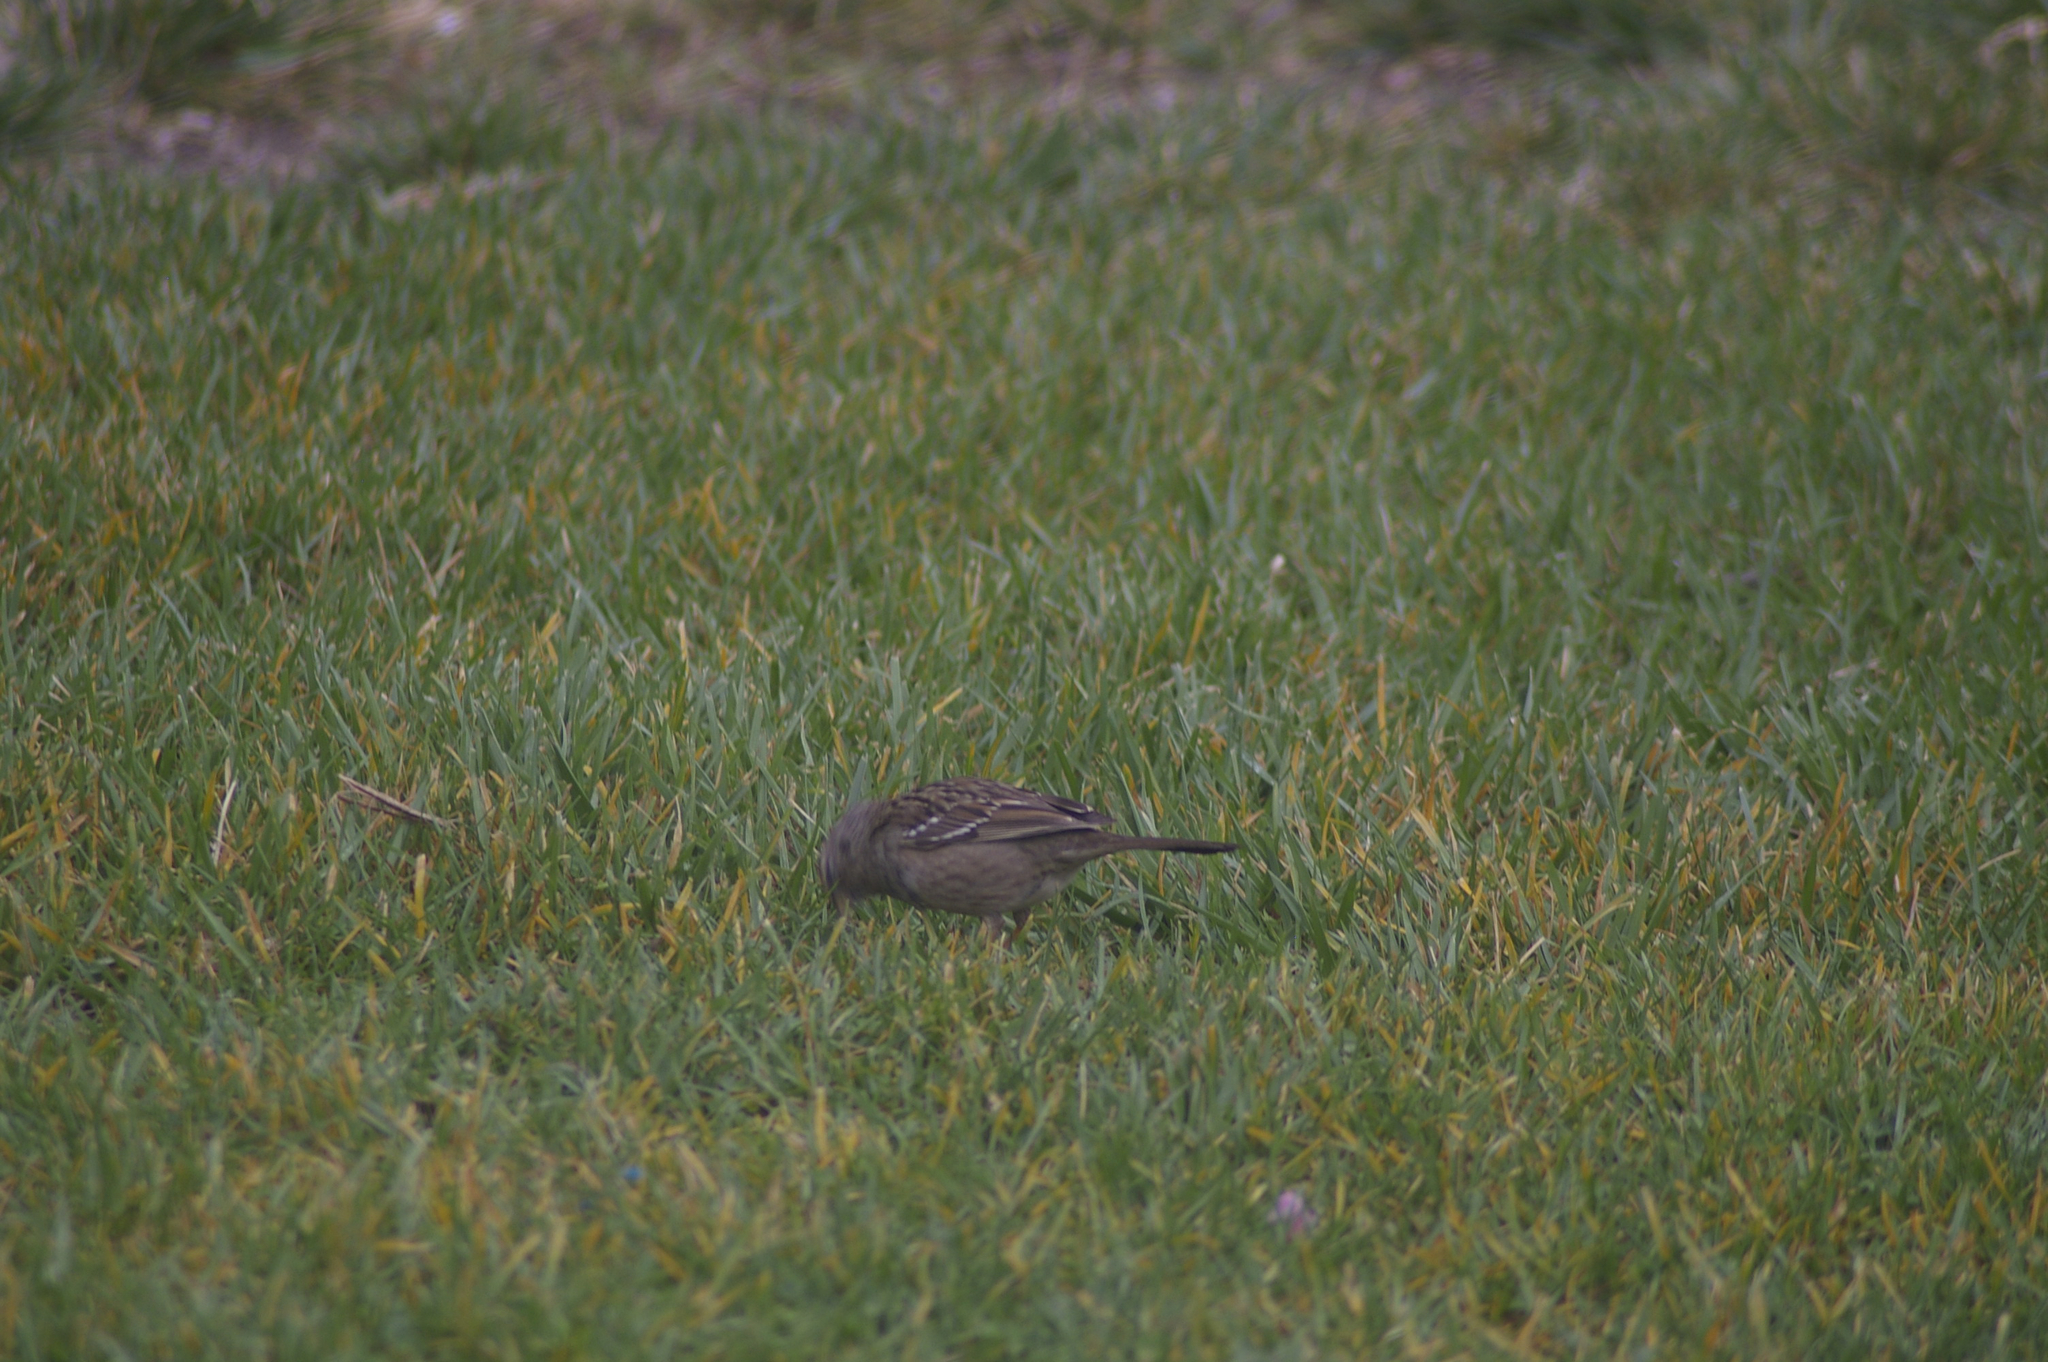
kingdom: Animalia
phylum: Chordata
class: Aves
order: Passeriformes
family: Passerellidae
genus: Zonotrichia
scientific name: Zonotrichia atricapilla
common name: Golden-crowned sparrow
